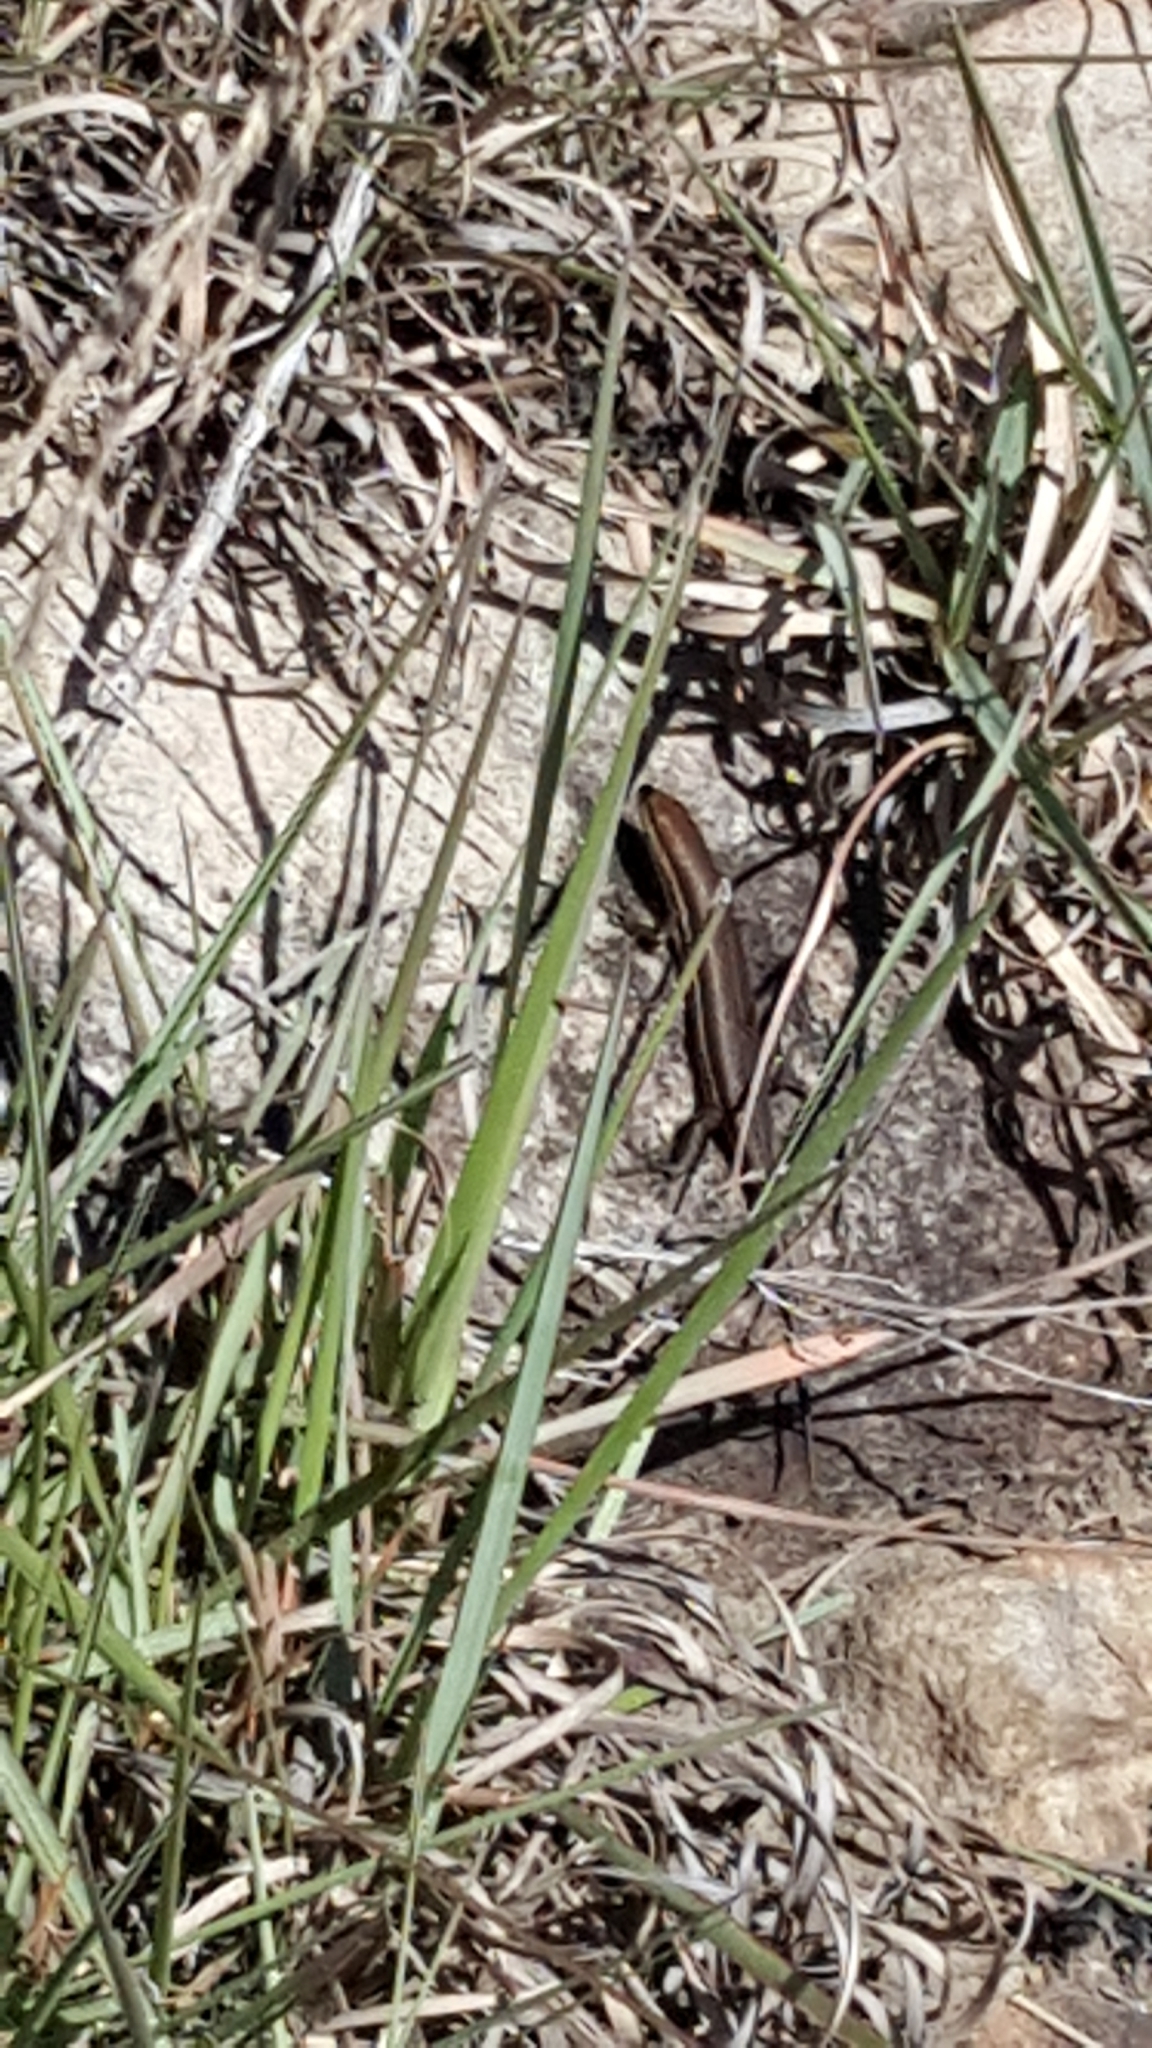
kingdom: Animalia
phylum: Chordata
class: Squamata
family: Scincidae
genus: Trachylepis
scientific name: Trachylepis homalocephala
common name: Red-sided skink
